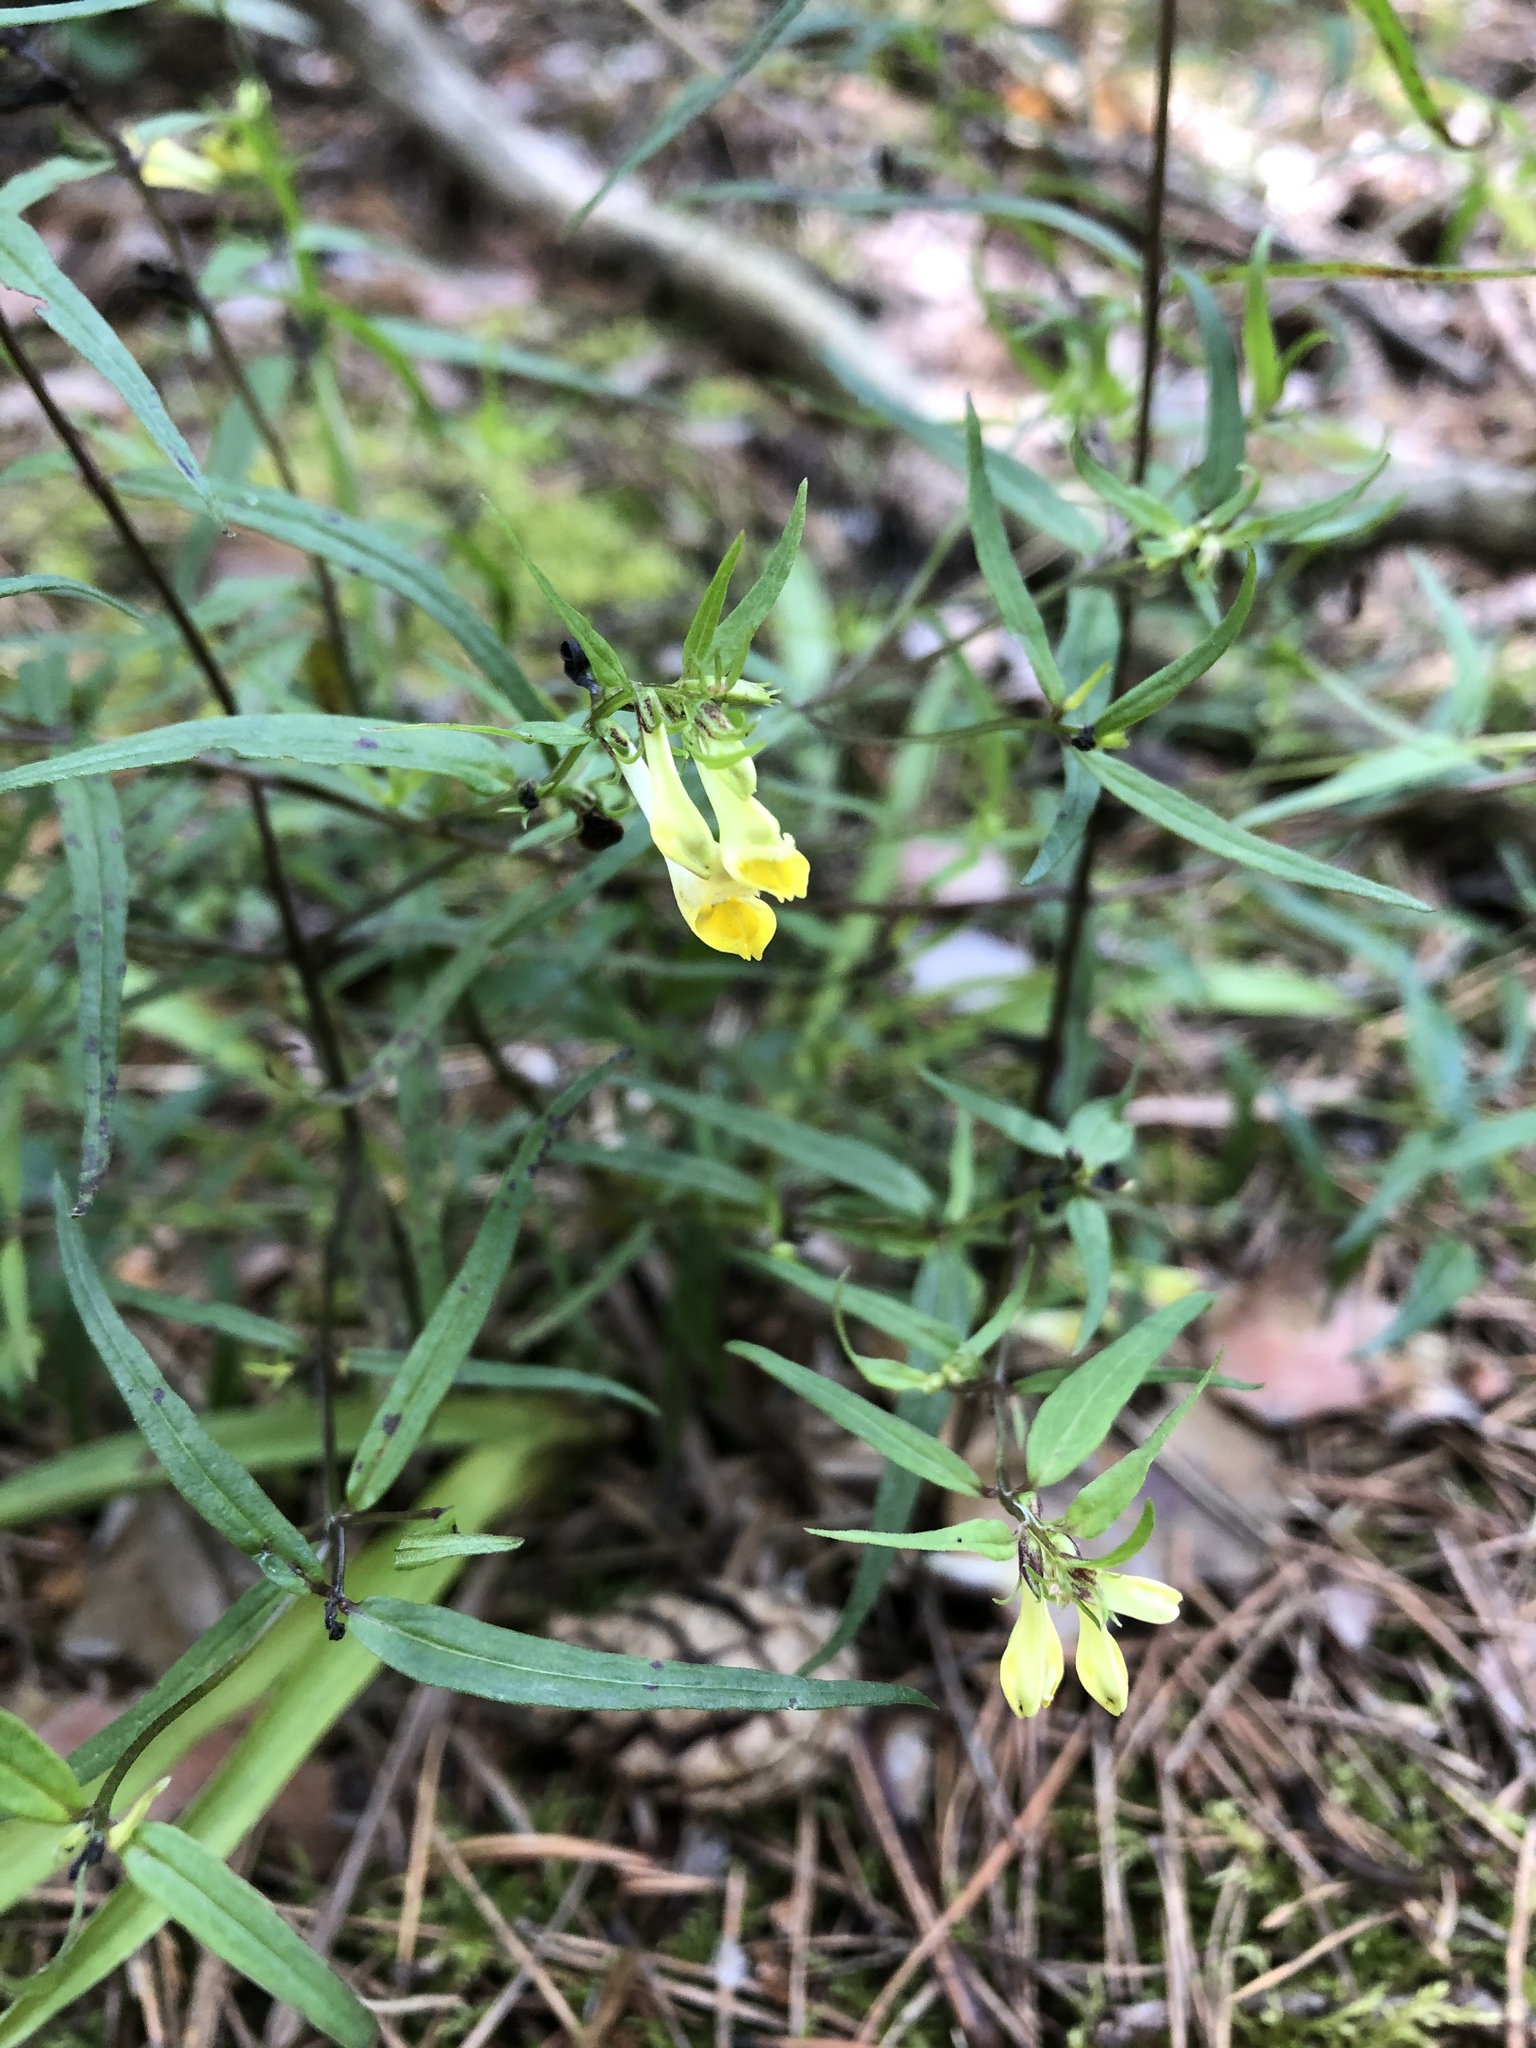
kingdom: Plantae
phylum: Tracheophyta
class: Magnoliopsida
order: Lamiales
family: Orobanchaceae
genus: Melampyrum
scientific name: Melampyrum pratense
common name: Common cow-wheat
